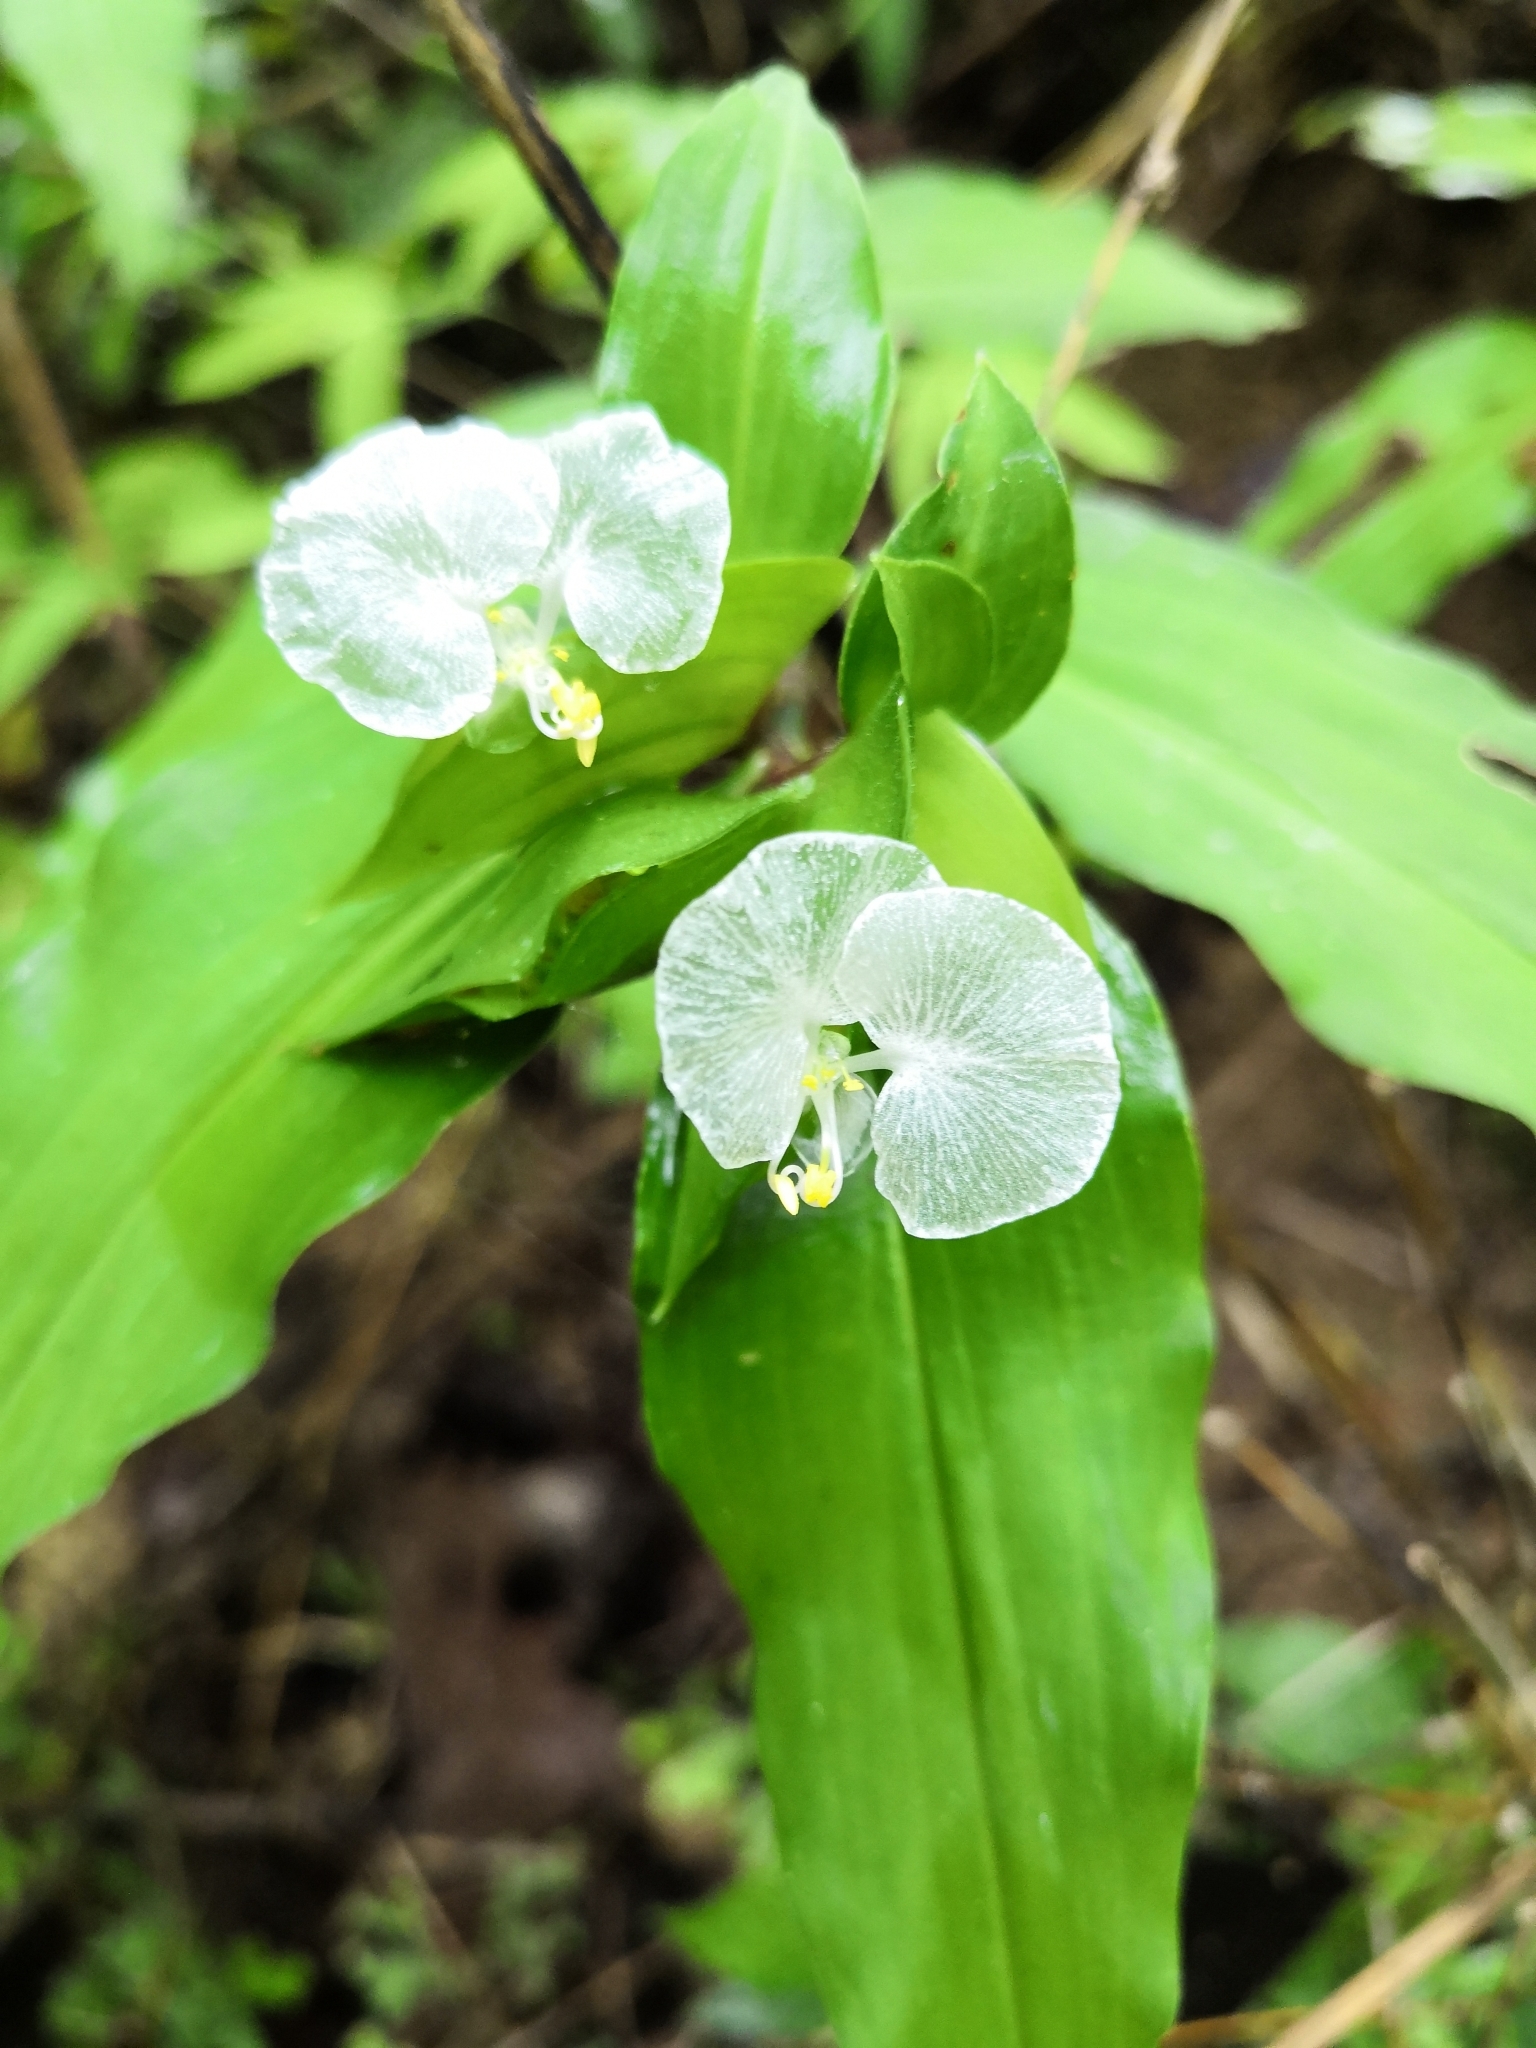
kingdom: Plantae
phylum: Tracheophyta
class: Liliopsida
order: Commelinales
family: Commelinaceae
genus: Commelina
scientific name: Commelina erecta
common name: Blousel blommetjie
